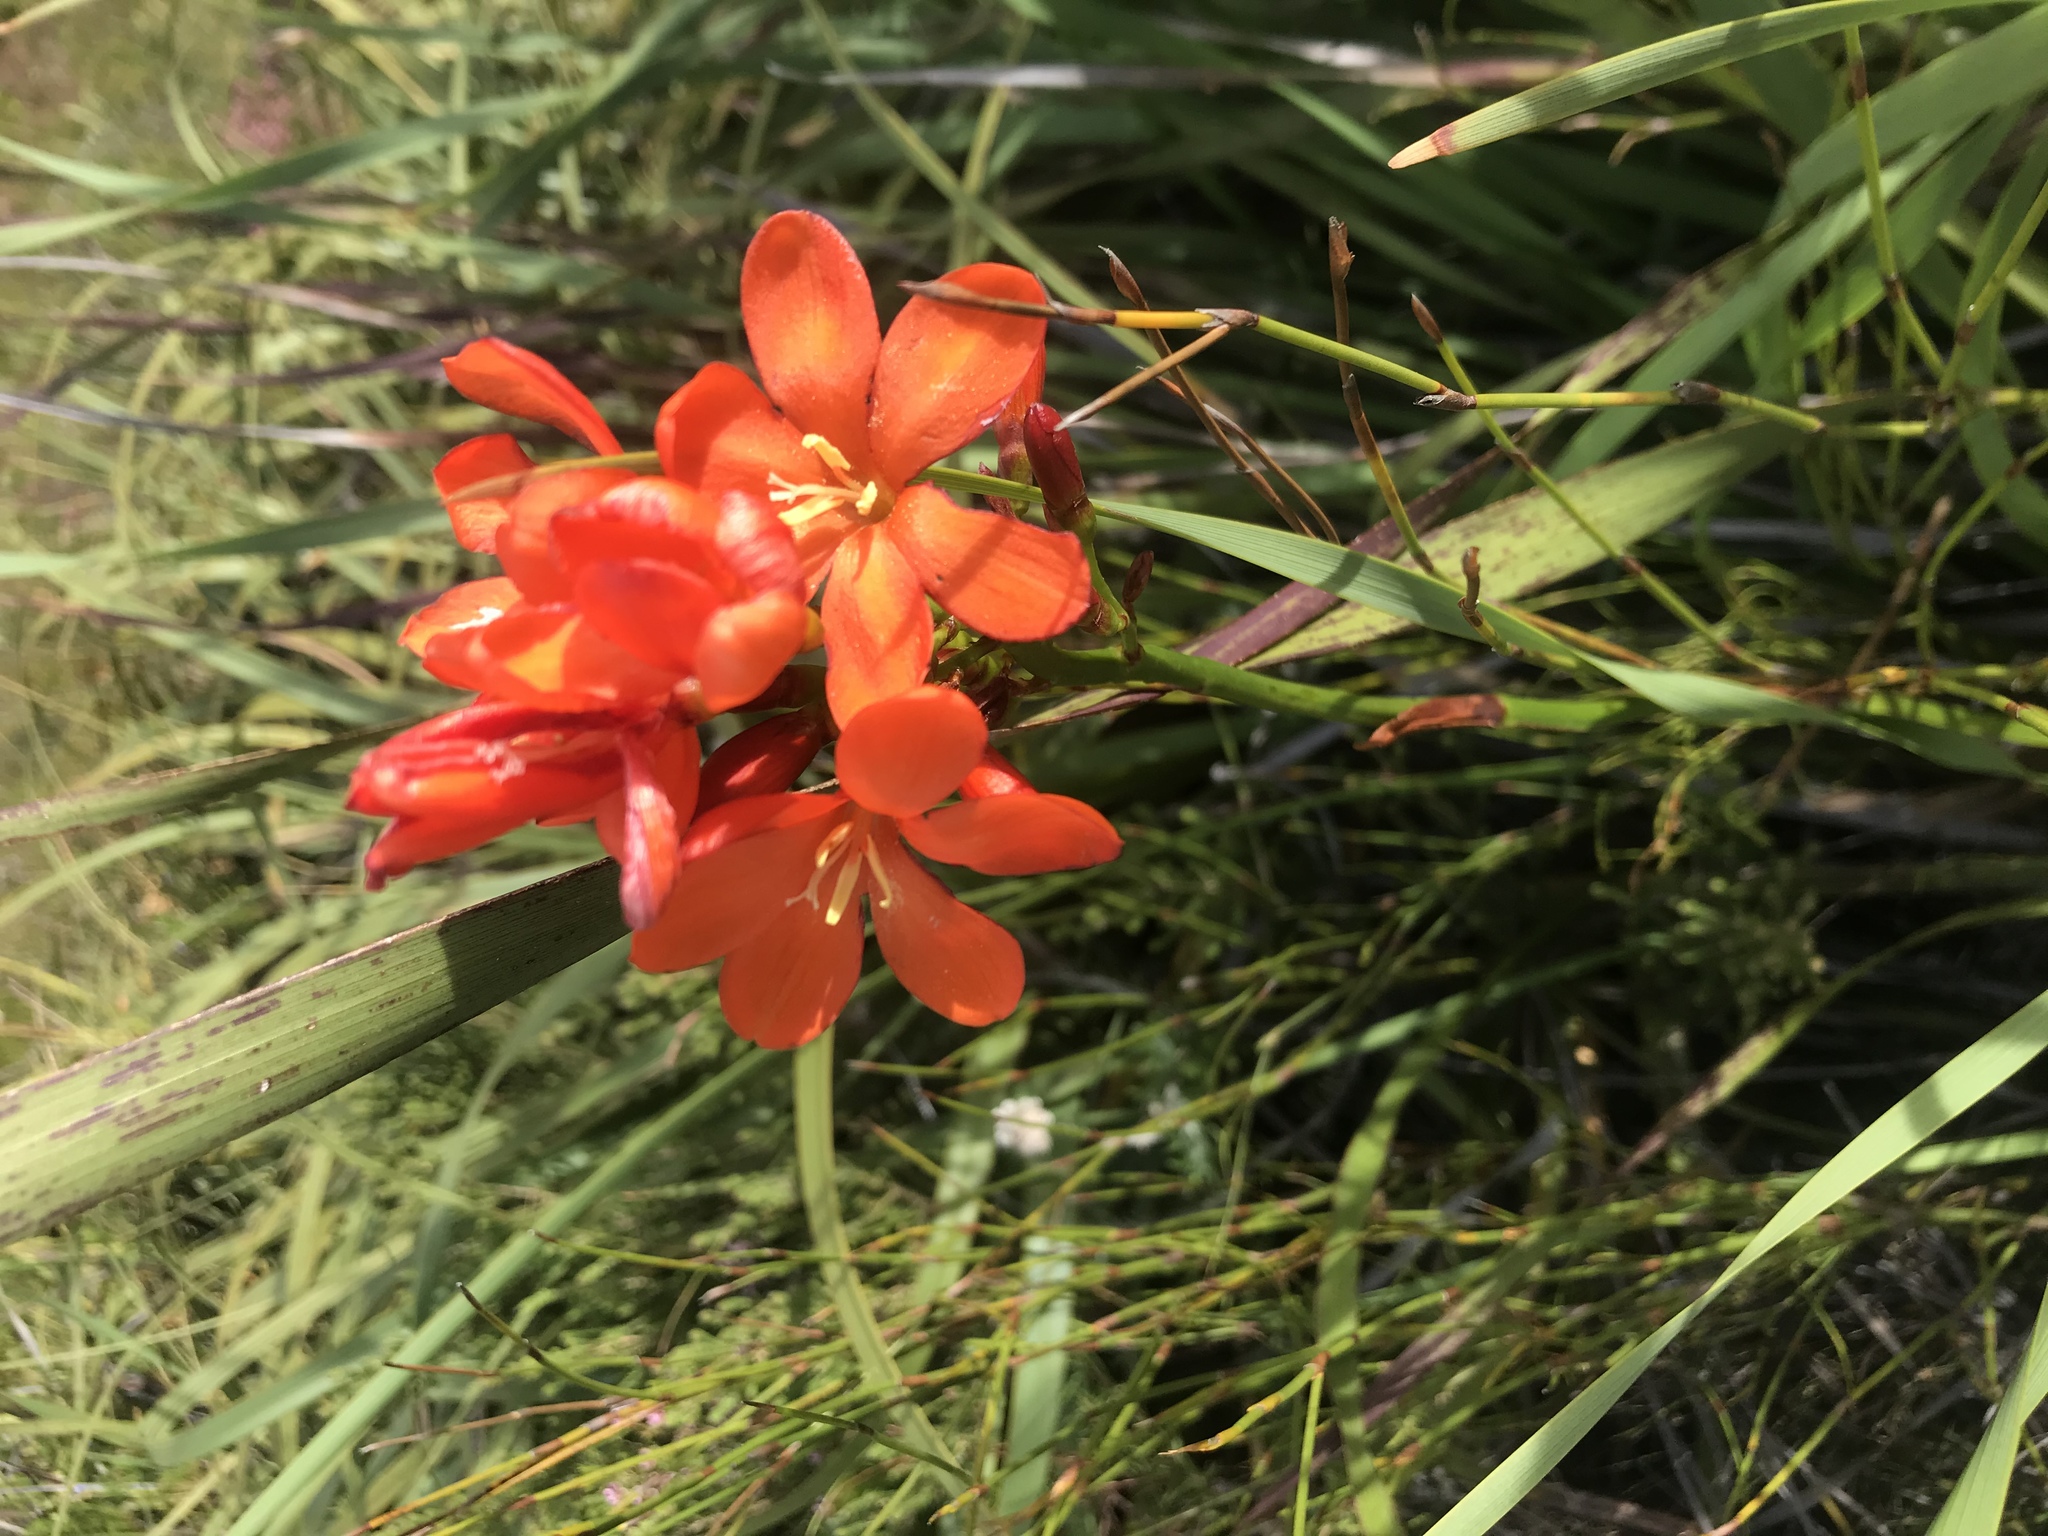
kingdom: Plantae
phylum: Tracheophyta
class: Liliopsida
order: Asparagales
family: Iridaceae
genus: Pillansia
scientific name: Pillansia templemannii
